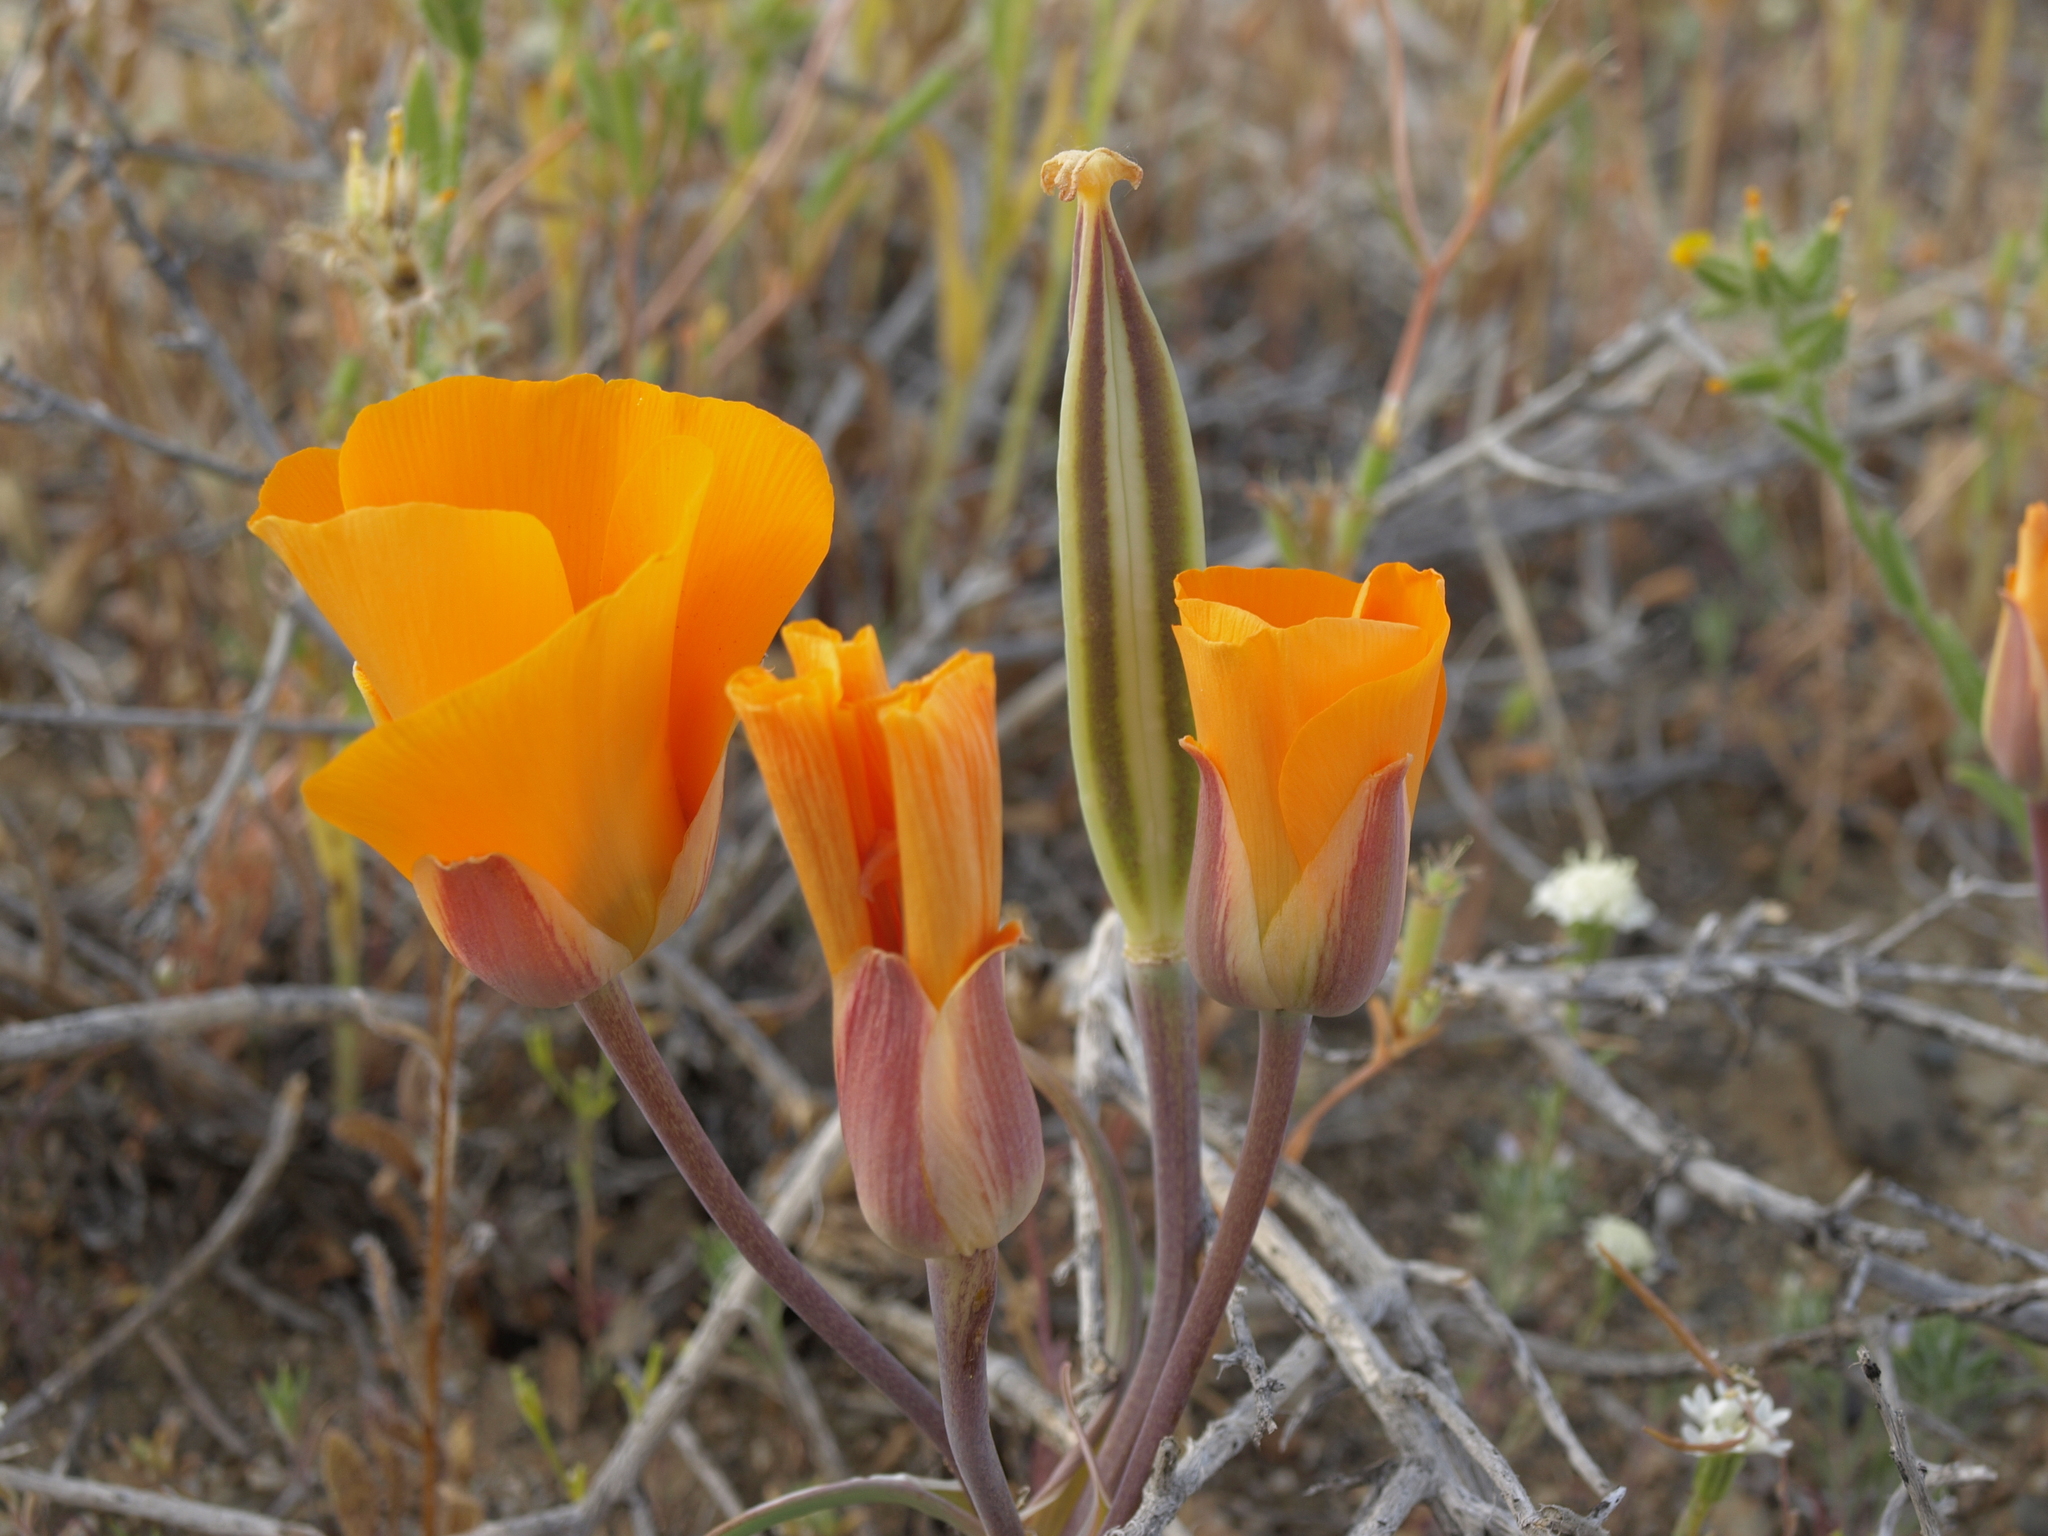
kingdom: Plantae
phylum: Tracheophyta
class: Liliopsida
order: Liliales
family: Liliaceae
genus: Calochortus
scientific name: Calochortus kennedyi
